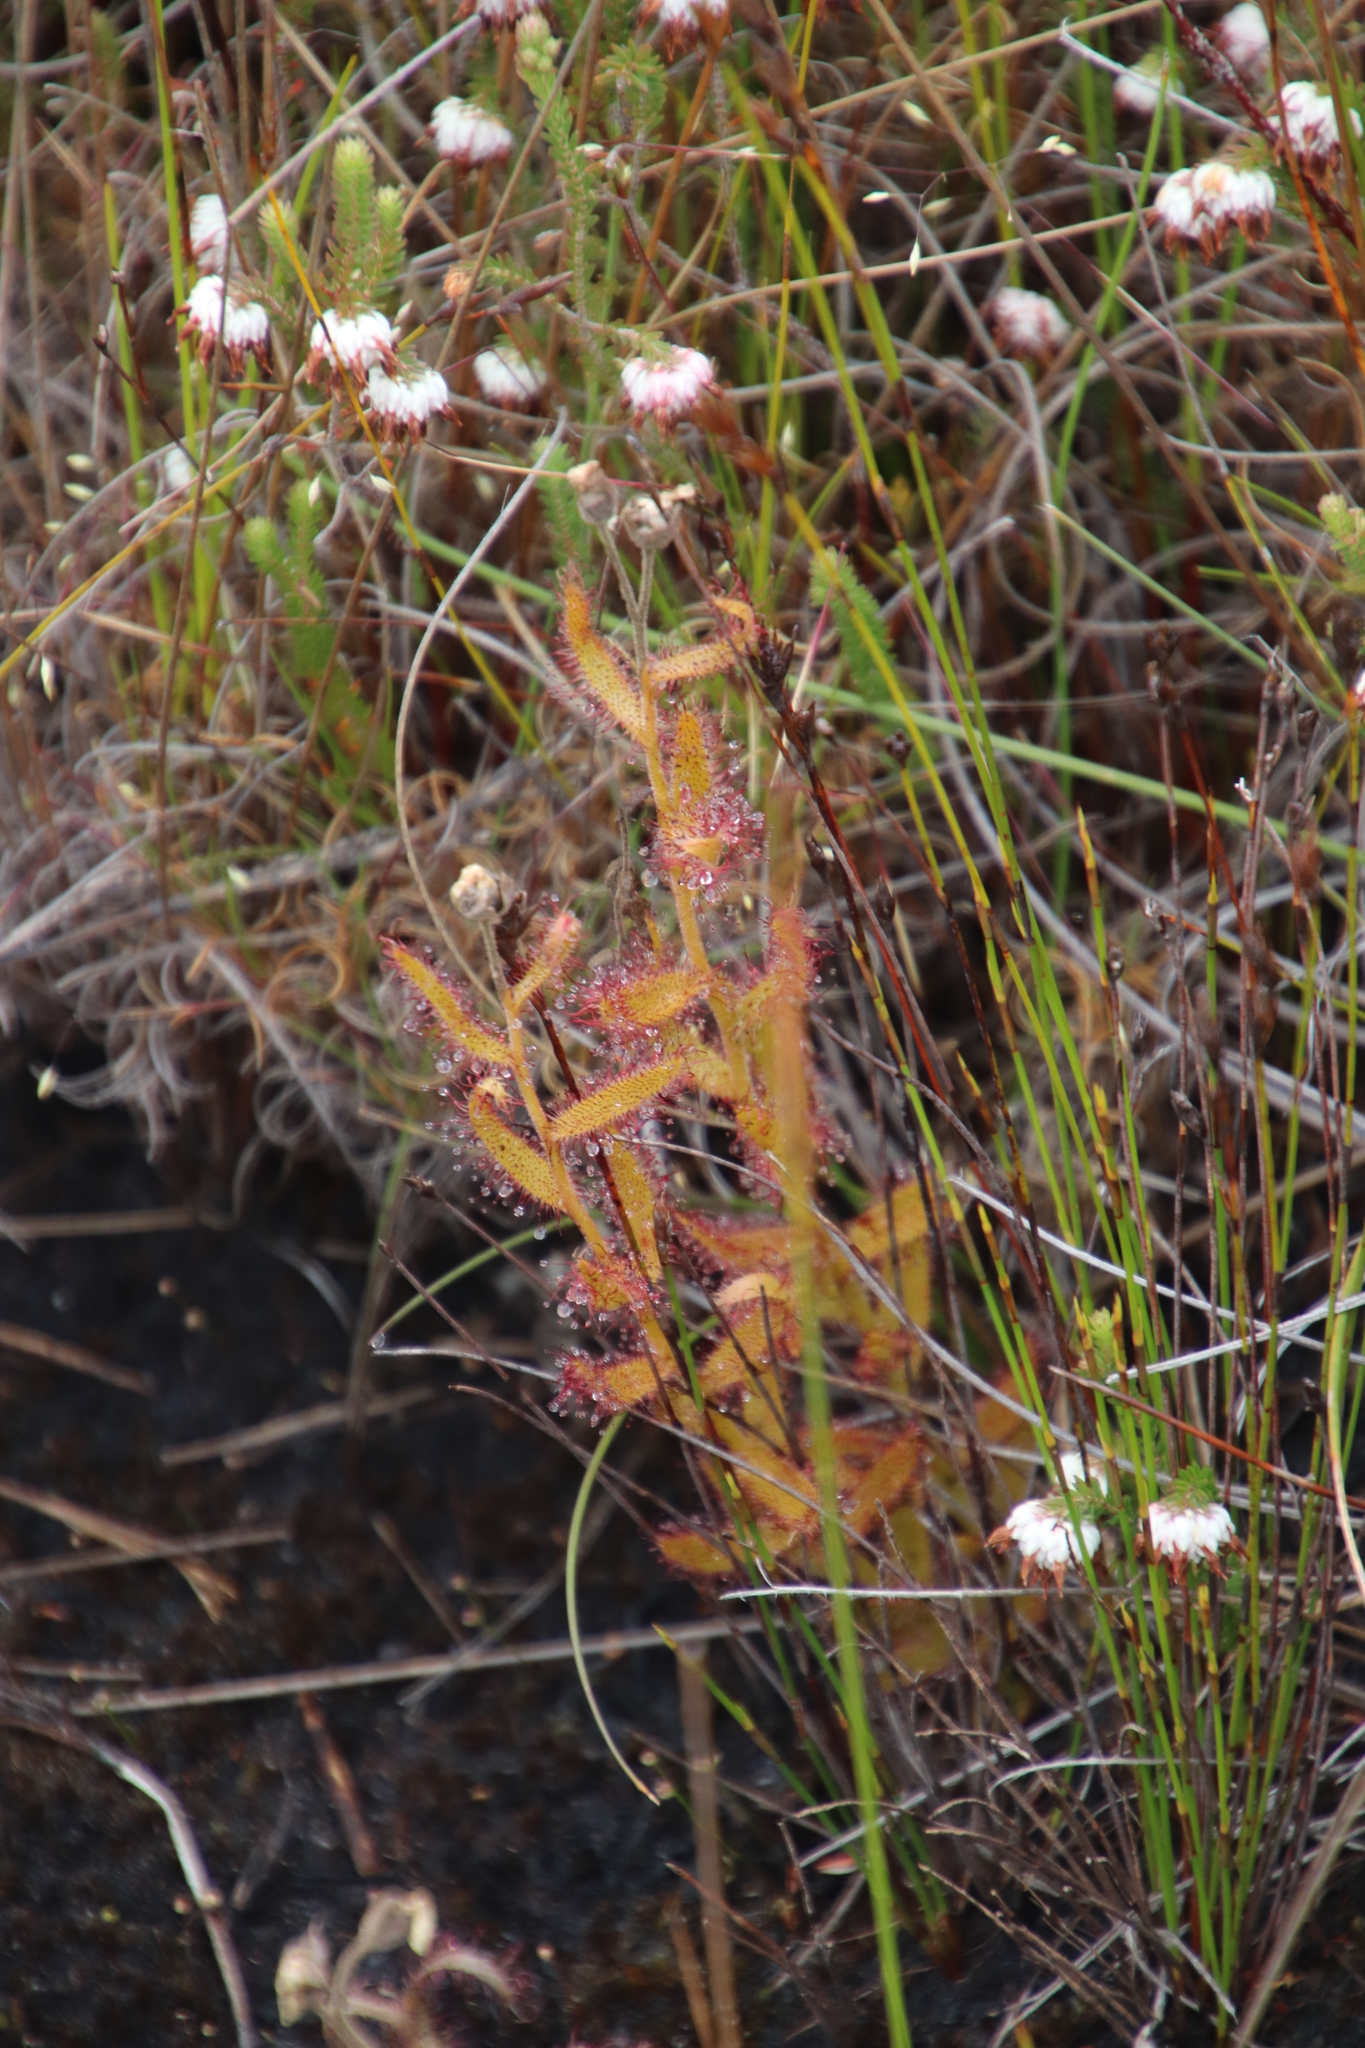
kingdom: Plantae
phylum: Tracheophyta
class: Magnoliopsida
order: Caryophyllales
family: Droseraceae
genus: Drosera
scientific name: Drosera cistiflora
